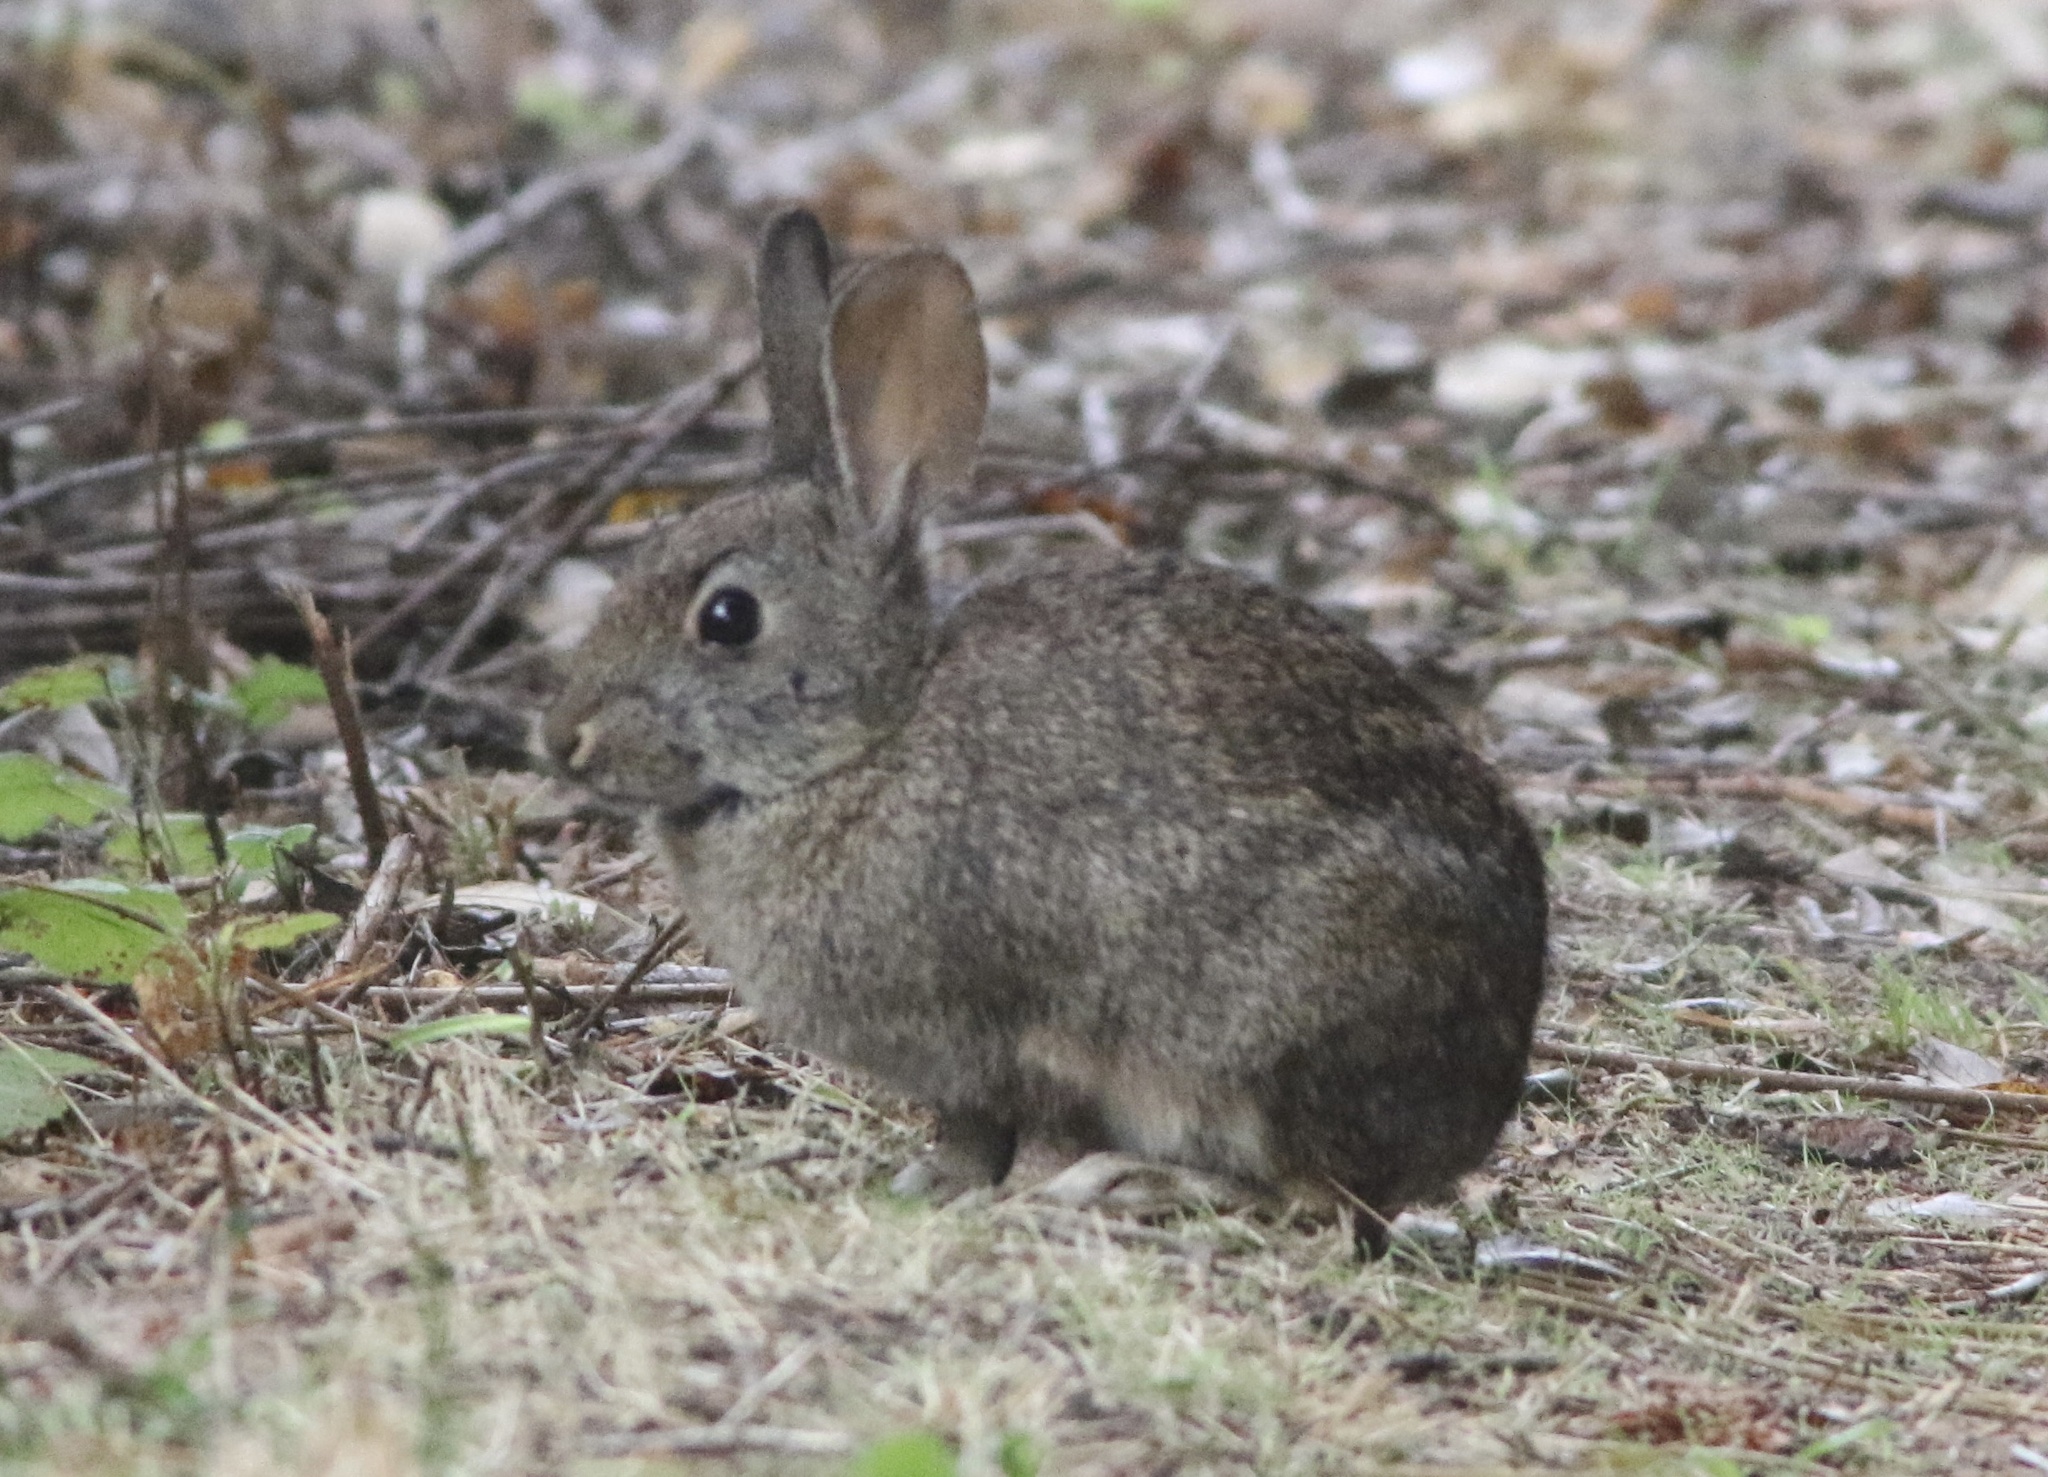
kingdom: Animalia
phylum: Chordata
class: Mammalia
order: Lagomorpha
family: Leporidae
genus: Sylvilagus
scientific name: Sylvilagus bachmani
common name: Brush rabbit
